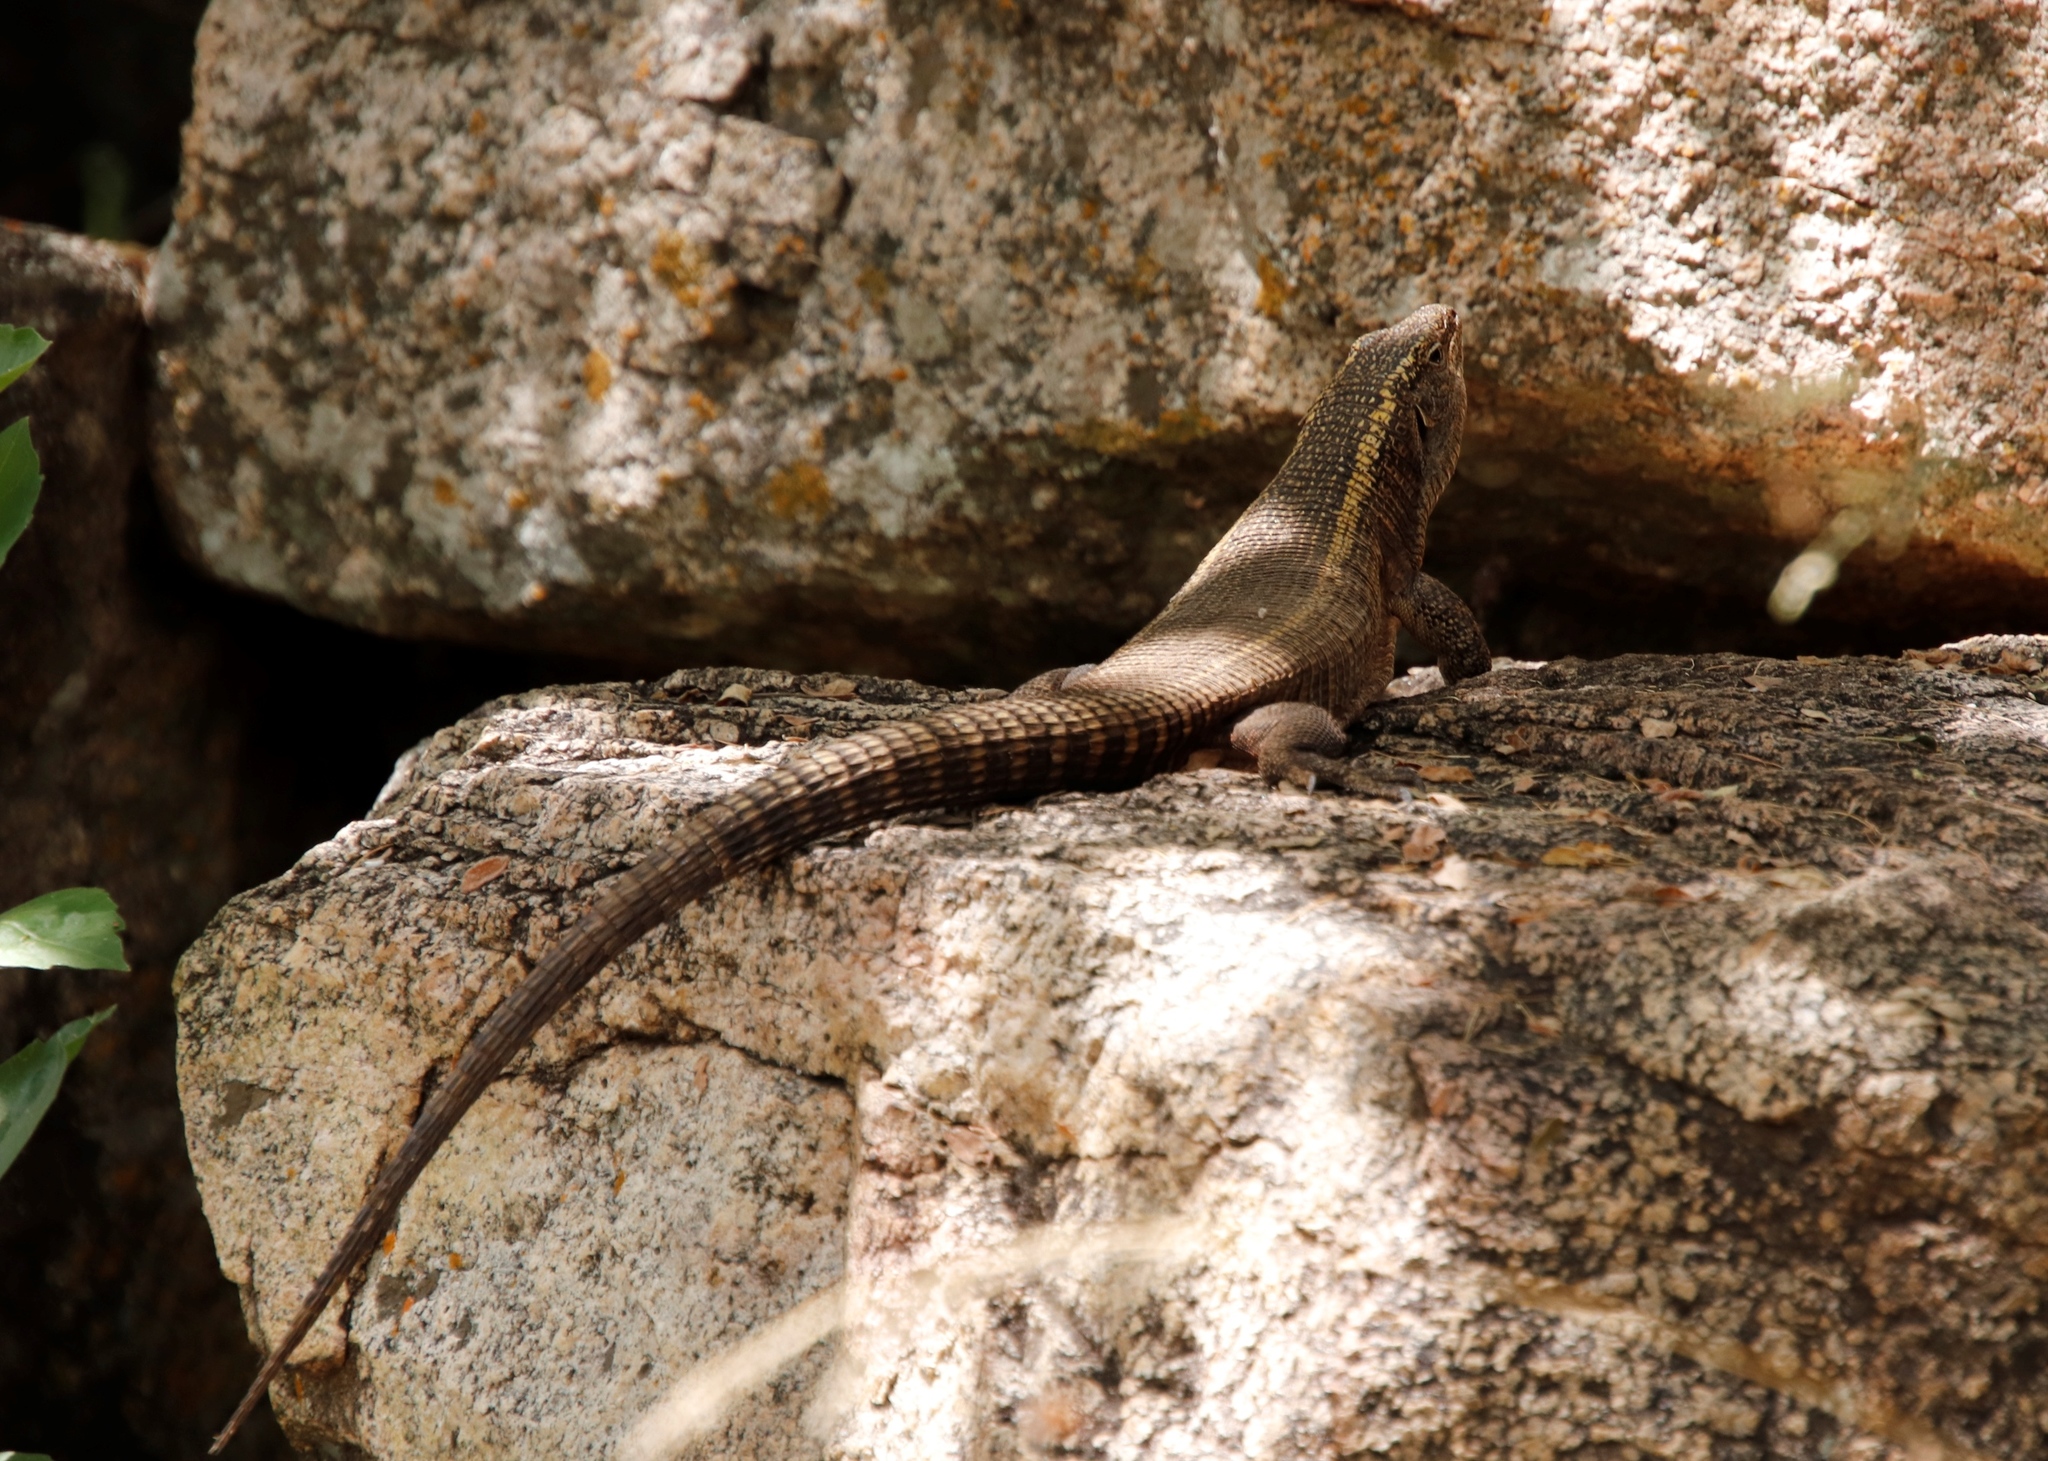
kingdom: Animalia
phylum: Chordata
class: Squamata
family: Gerrhosauridae
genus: Matobosaurus
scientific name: Matobosaurus validus
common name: Common giant plated lizard
